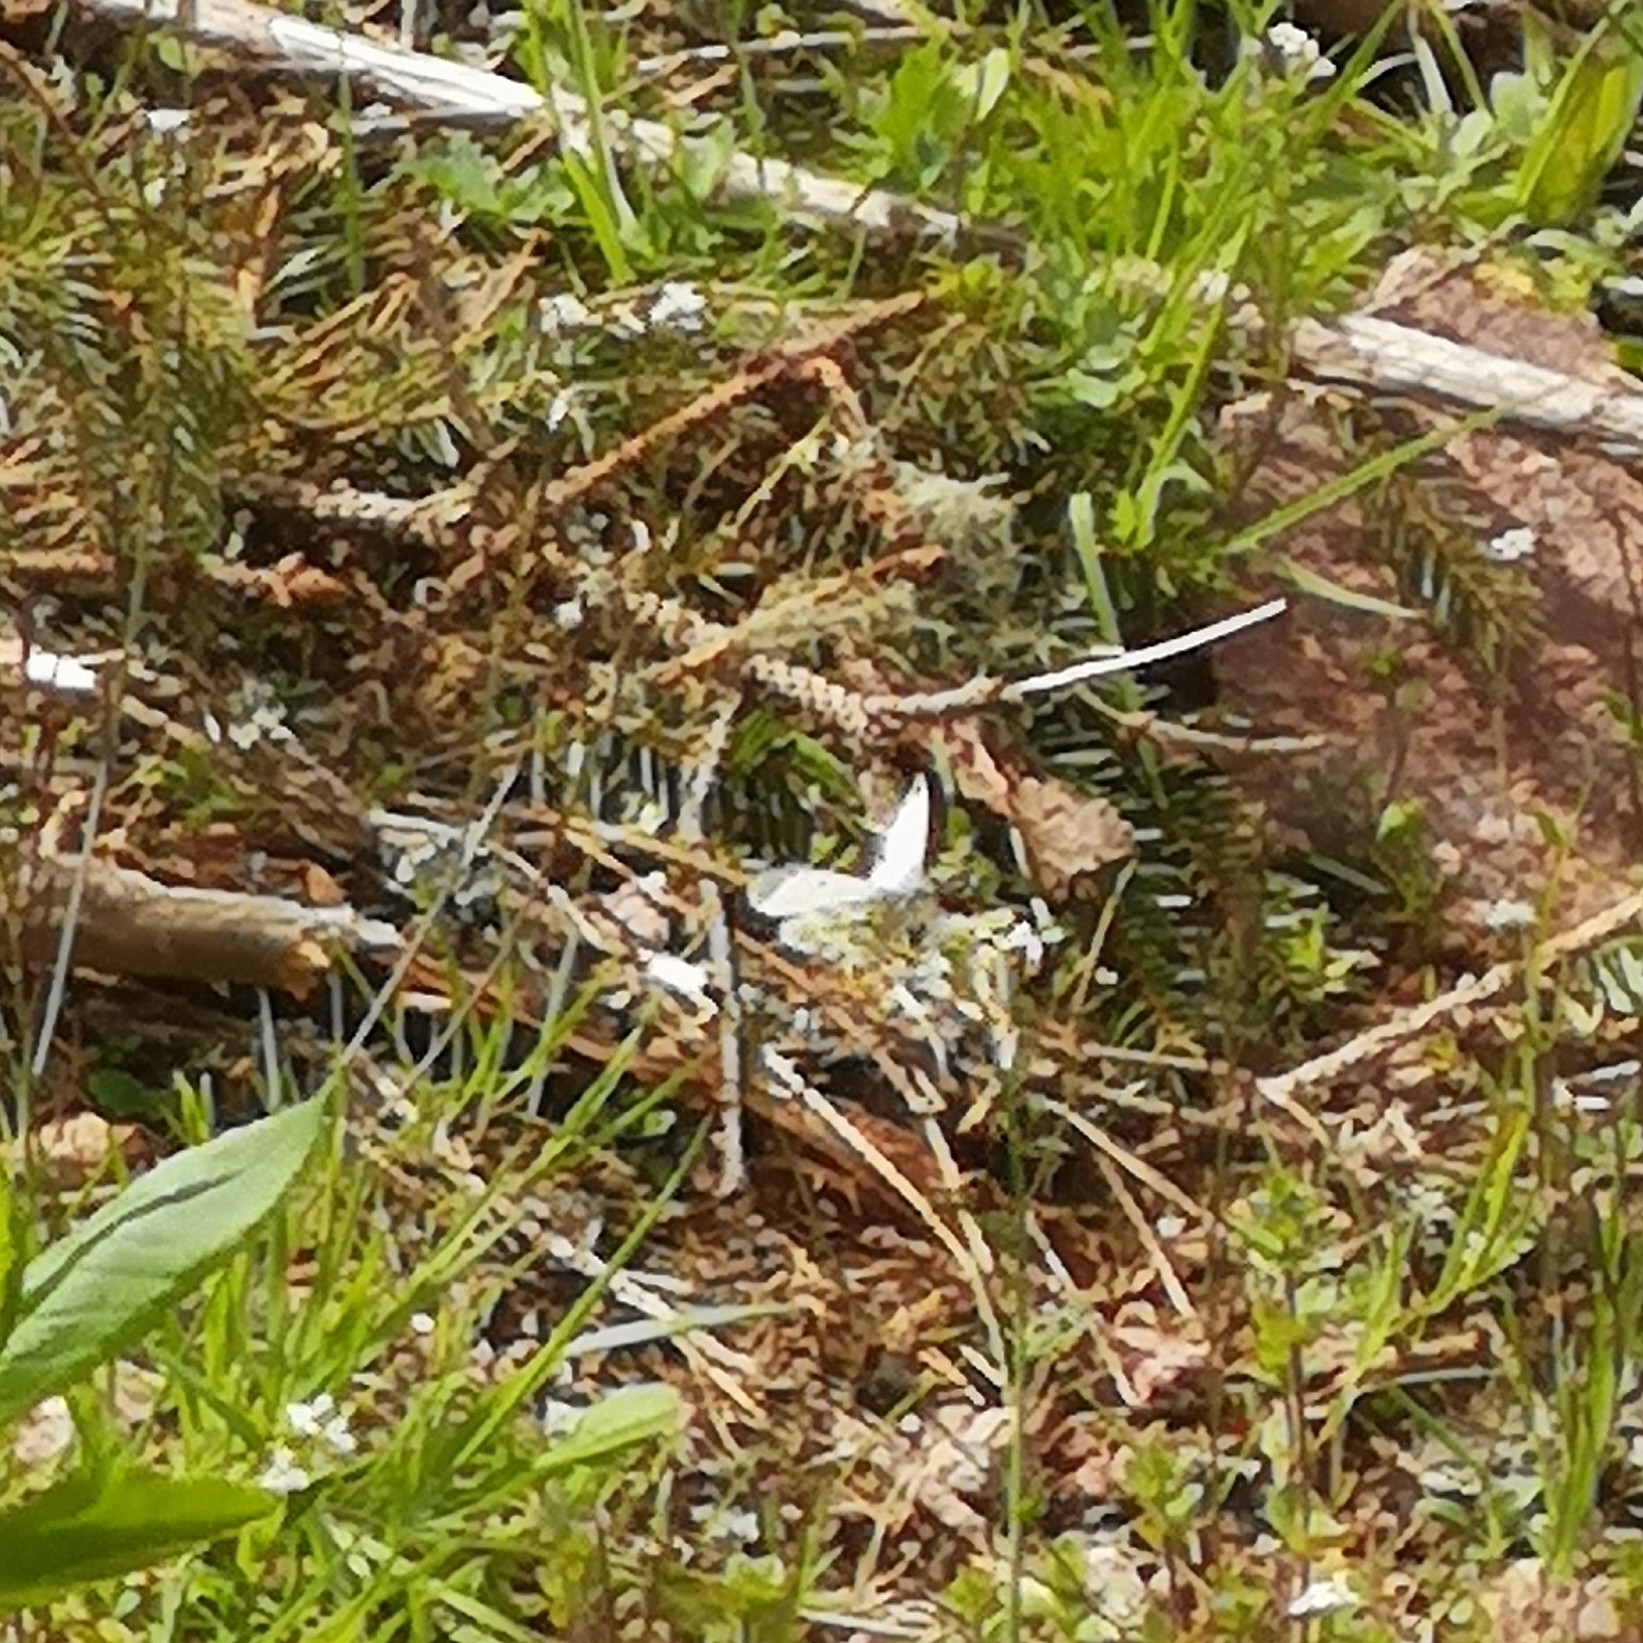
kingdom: Animalia
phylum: Arthropoda
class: Insecta
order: Lepidoptera
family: Pieridae
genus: Anthocharis
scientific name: Anthocharis cardamines
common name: Orange-tip
